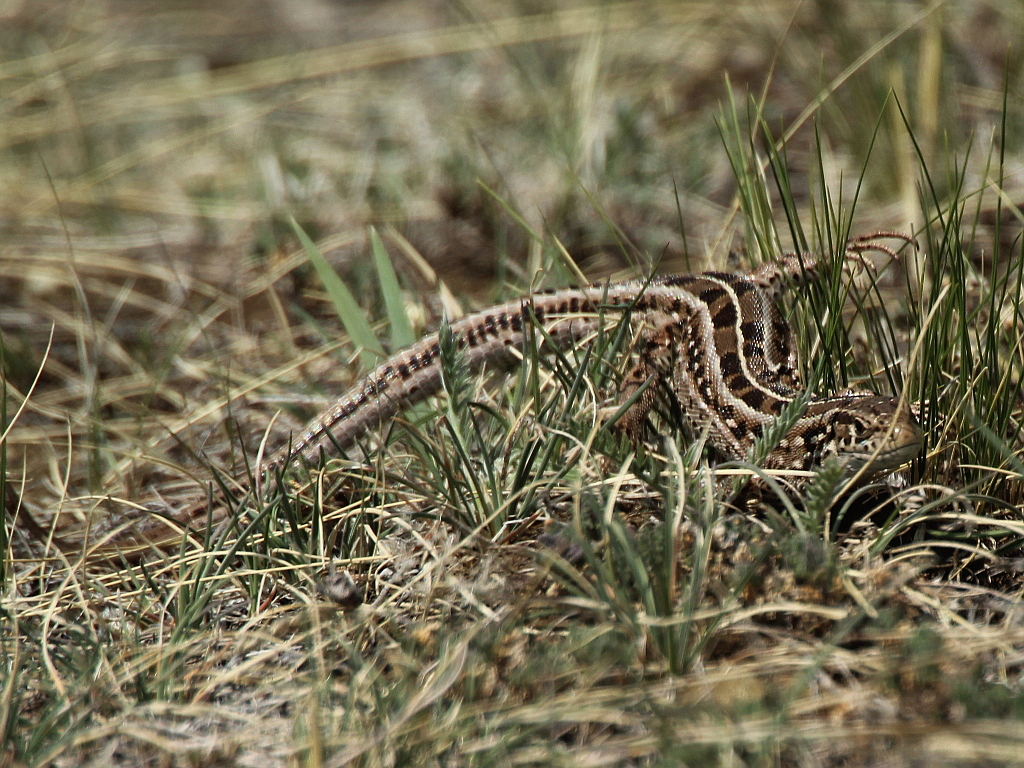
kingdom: Animalia
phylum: Chordata
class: Squamata
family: Lacertidae
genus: Lacerta
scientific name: Lacerta agilis
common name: Sand lizard
